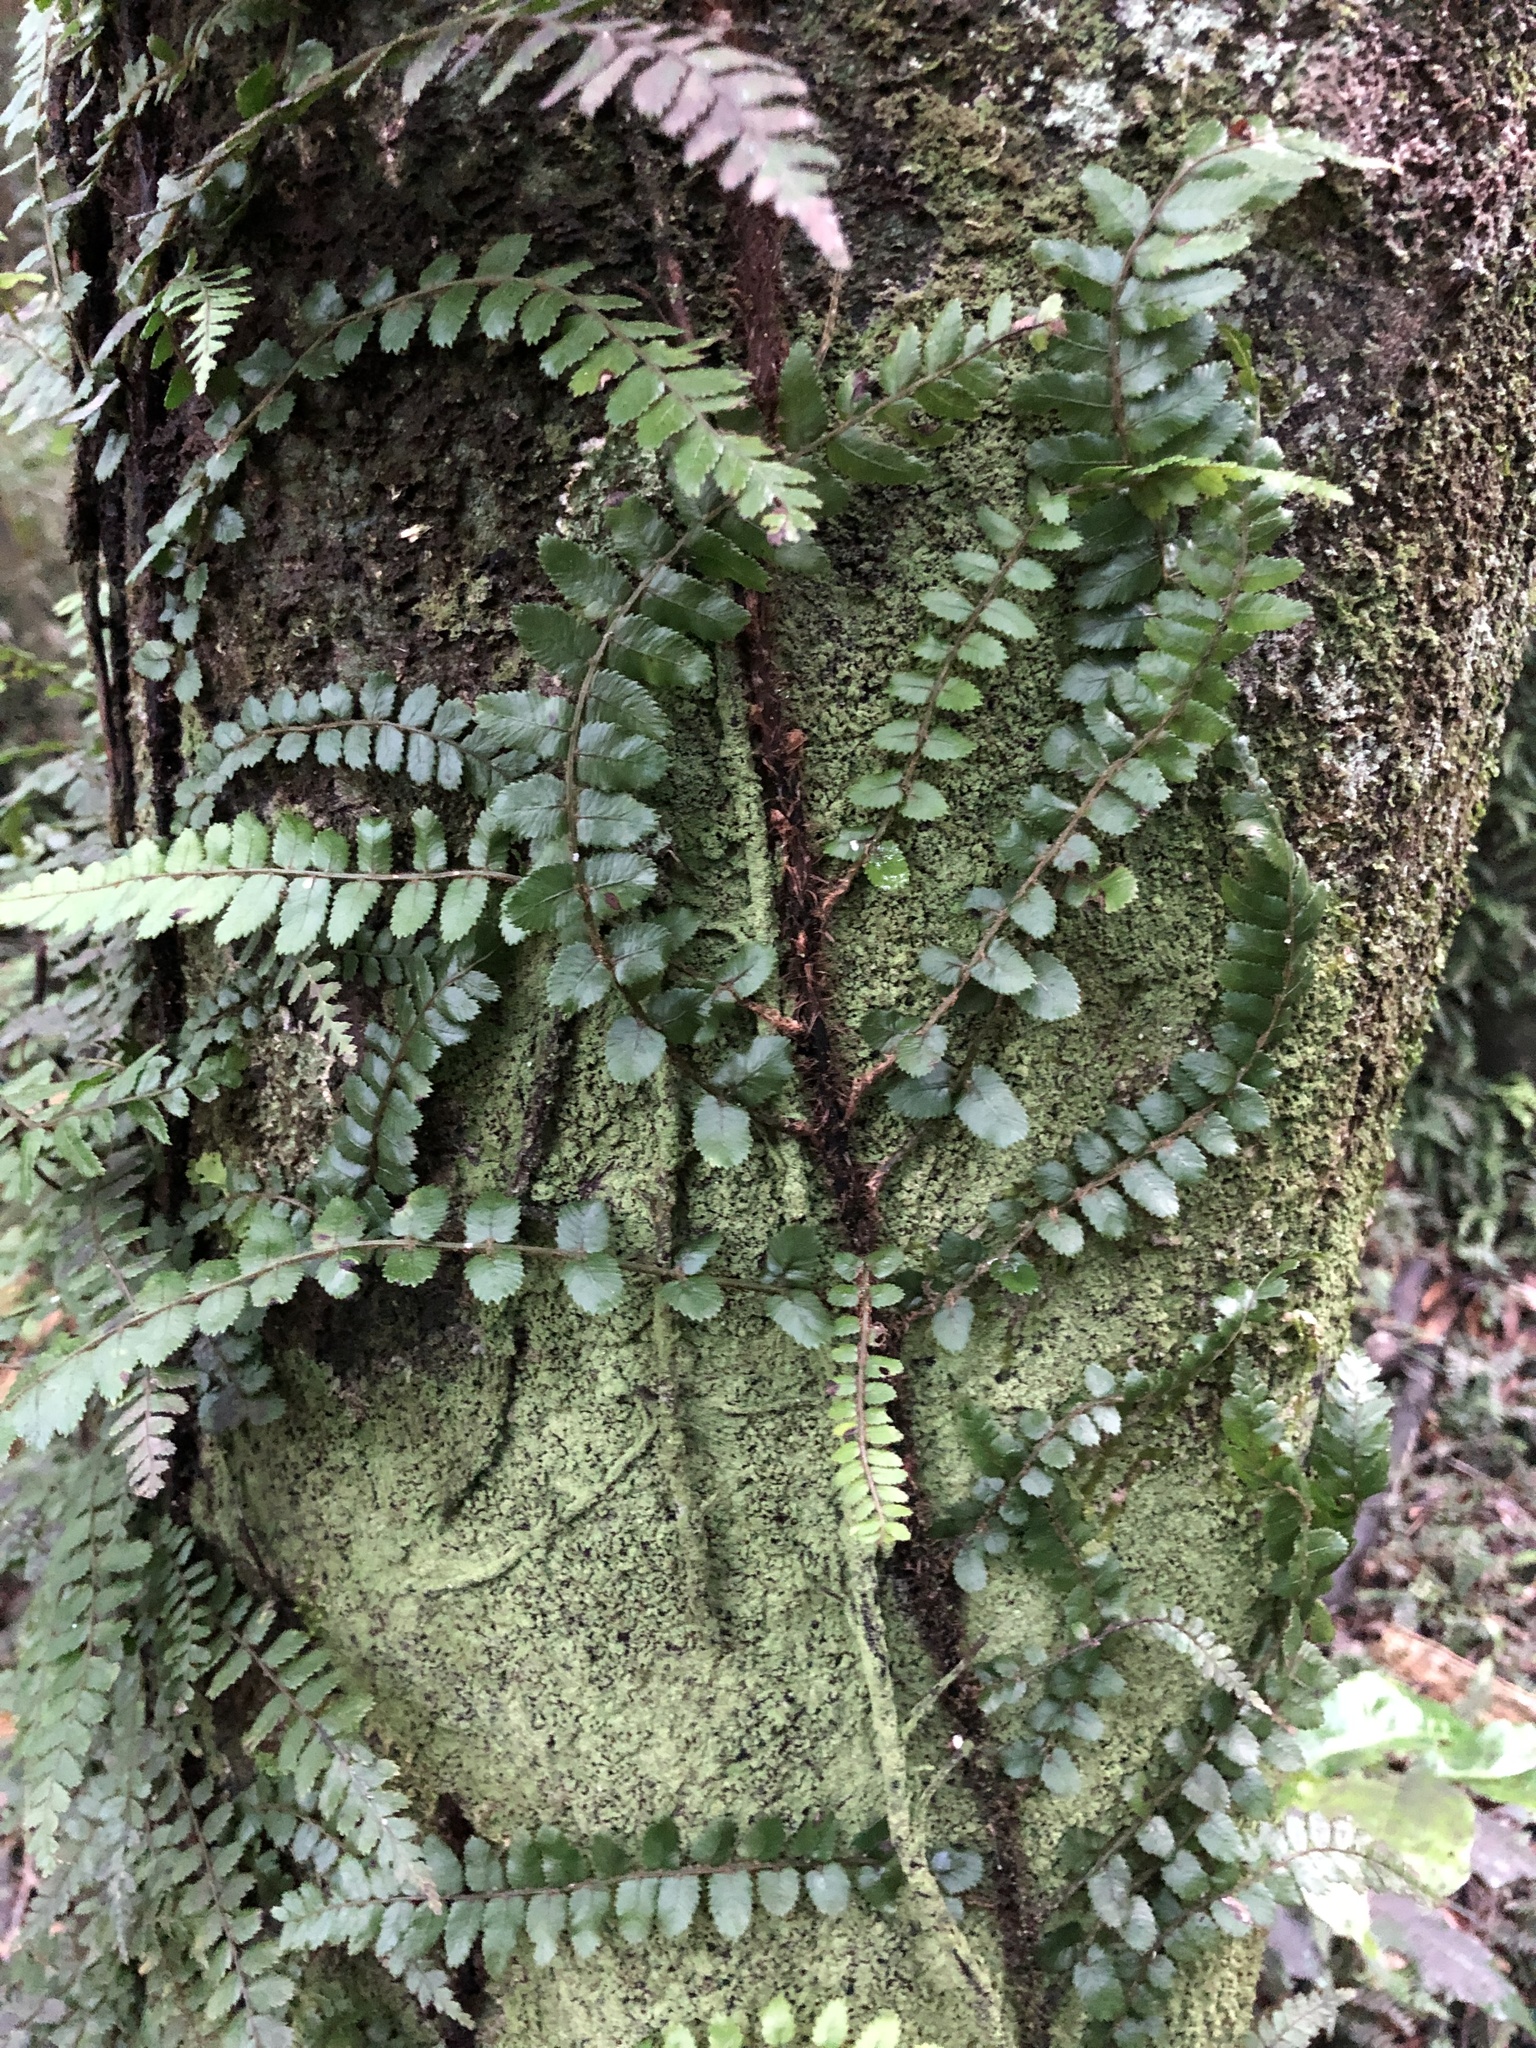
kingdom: Plantae
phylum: Tracheophyta
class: Polypodiopsida
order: Polypodiales
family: Blechnaceae
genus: Icarus
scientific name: Icarus filiformis
